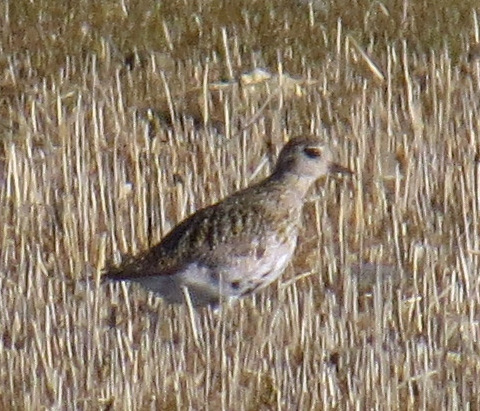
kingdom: Animalia
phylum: Chordata
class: Aves
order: Charadriiformes
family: Charadriidae
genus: Pluvialis
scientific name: Pluvialis apricaria
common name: European golden plover
